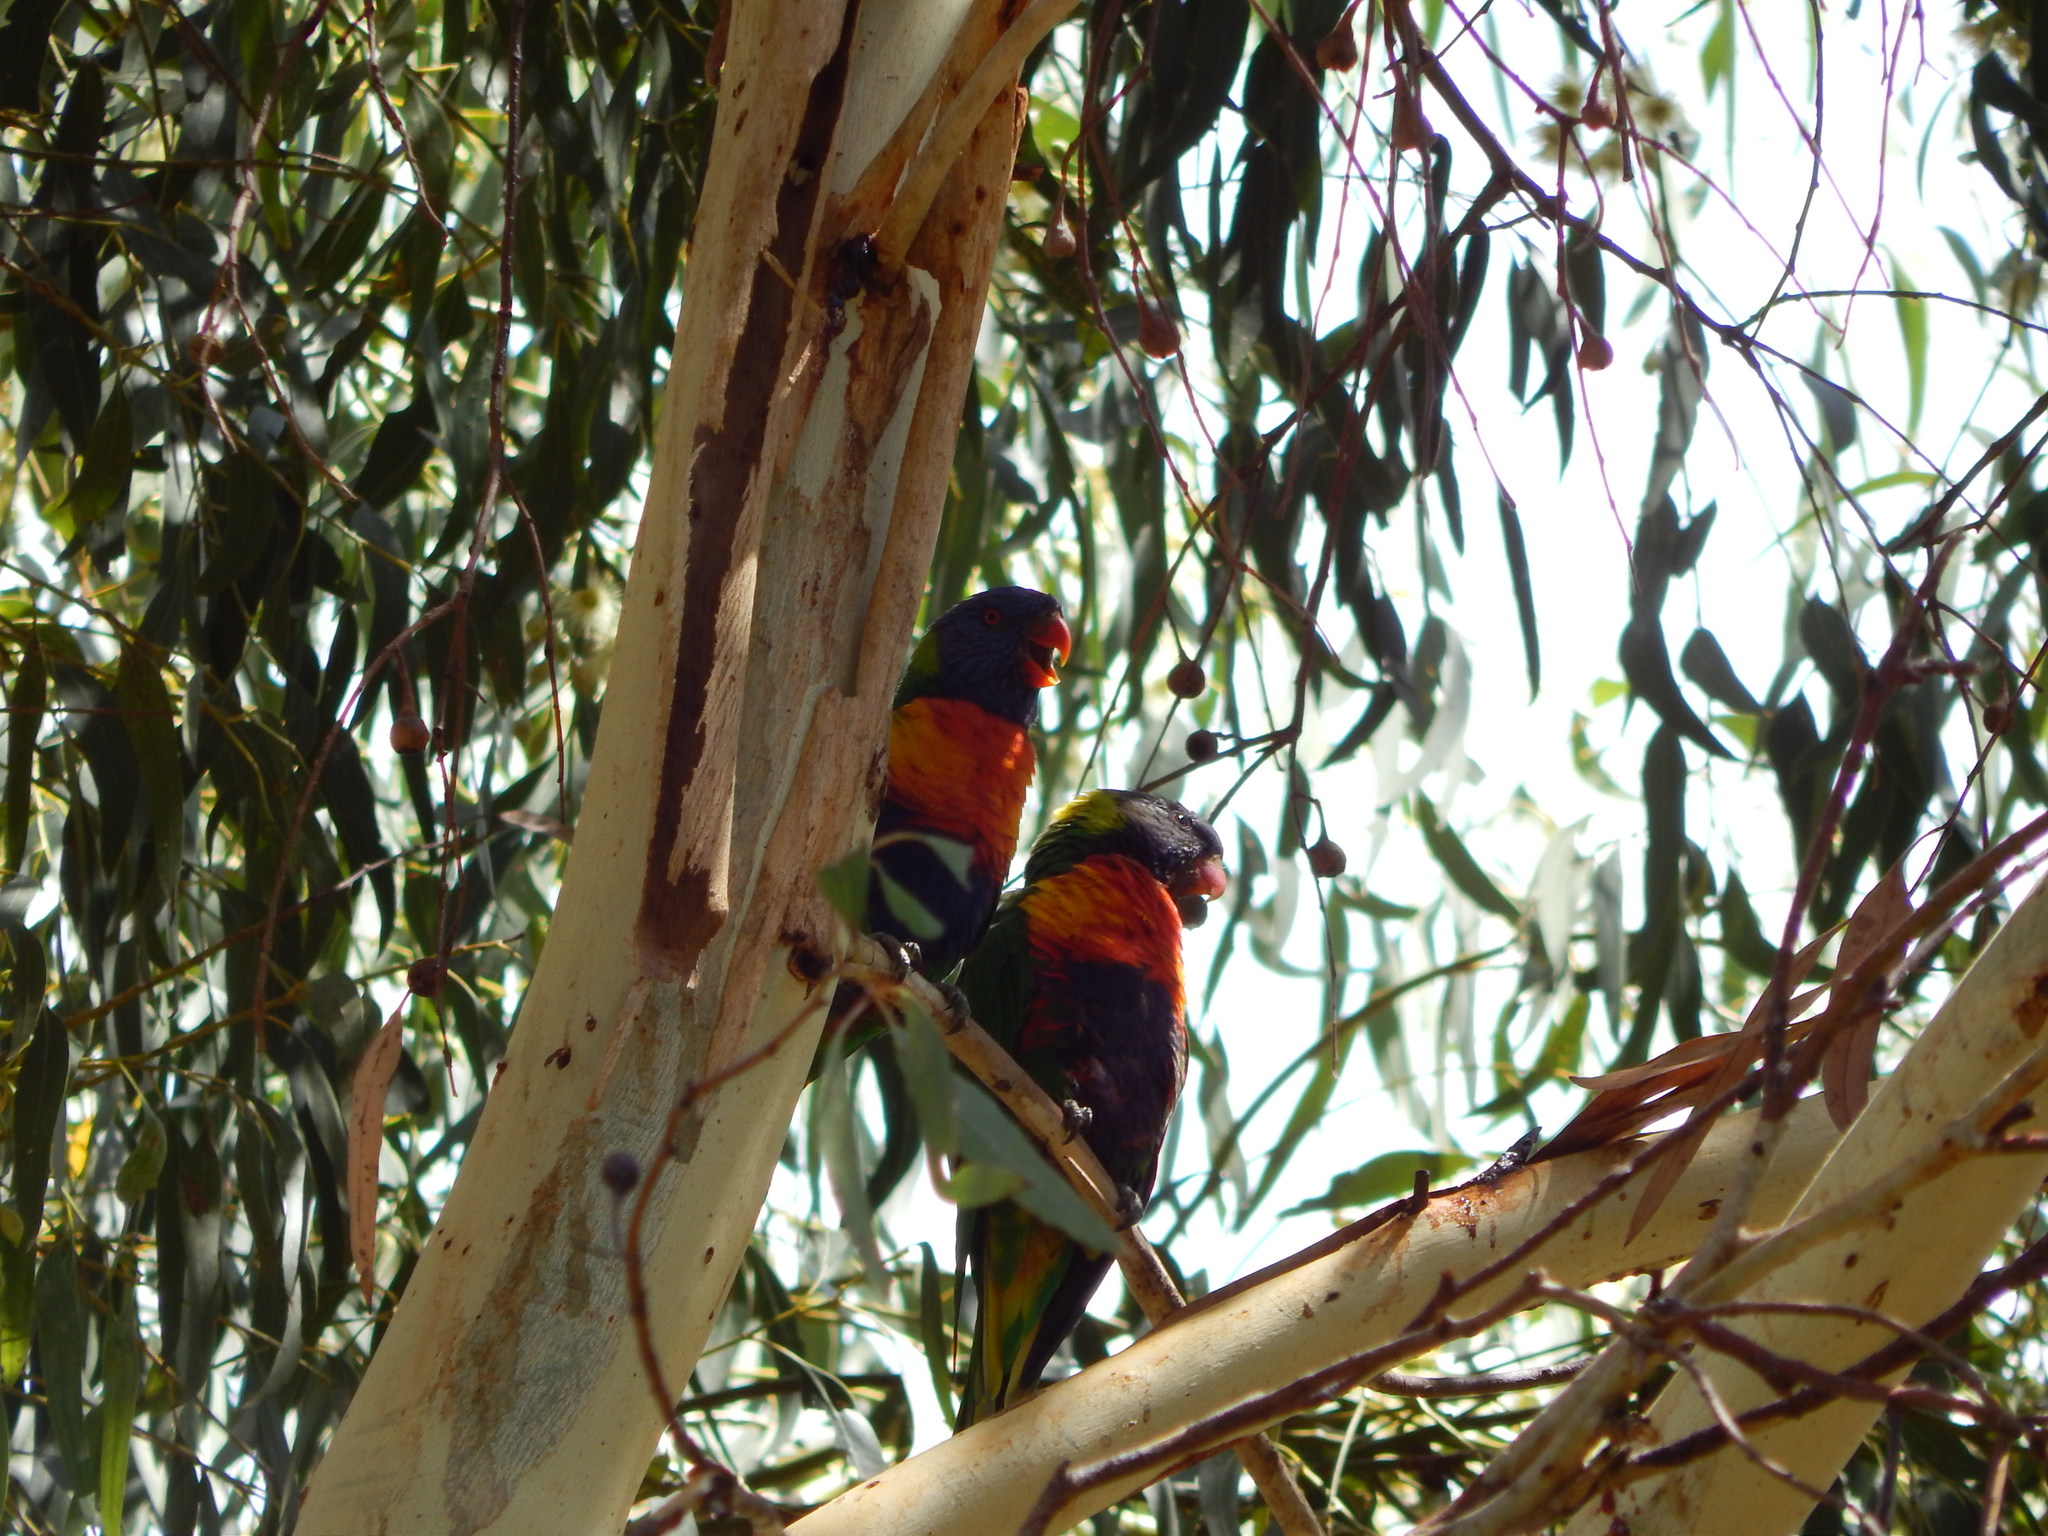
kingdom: Animalia
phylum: Chordata
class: Aves
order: Psittaciformes
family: Psittacidae
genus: Trichoglossus
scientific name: Trichoglossus haematodus
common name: Coconut lorikeet
